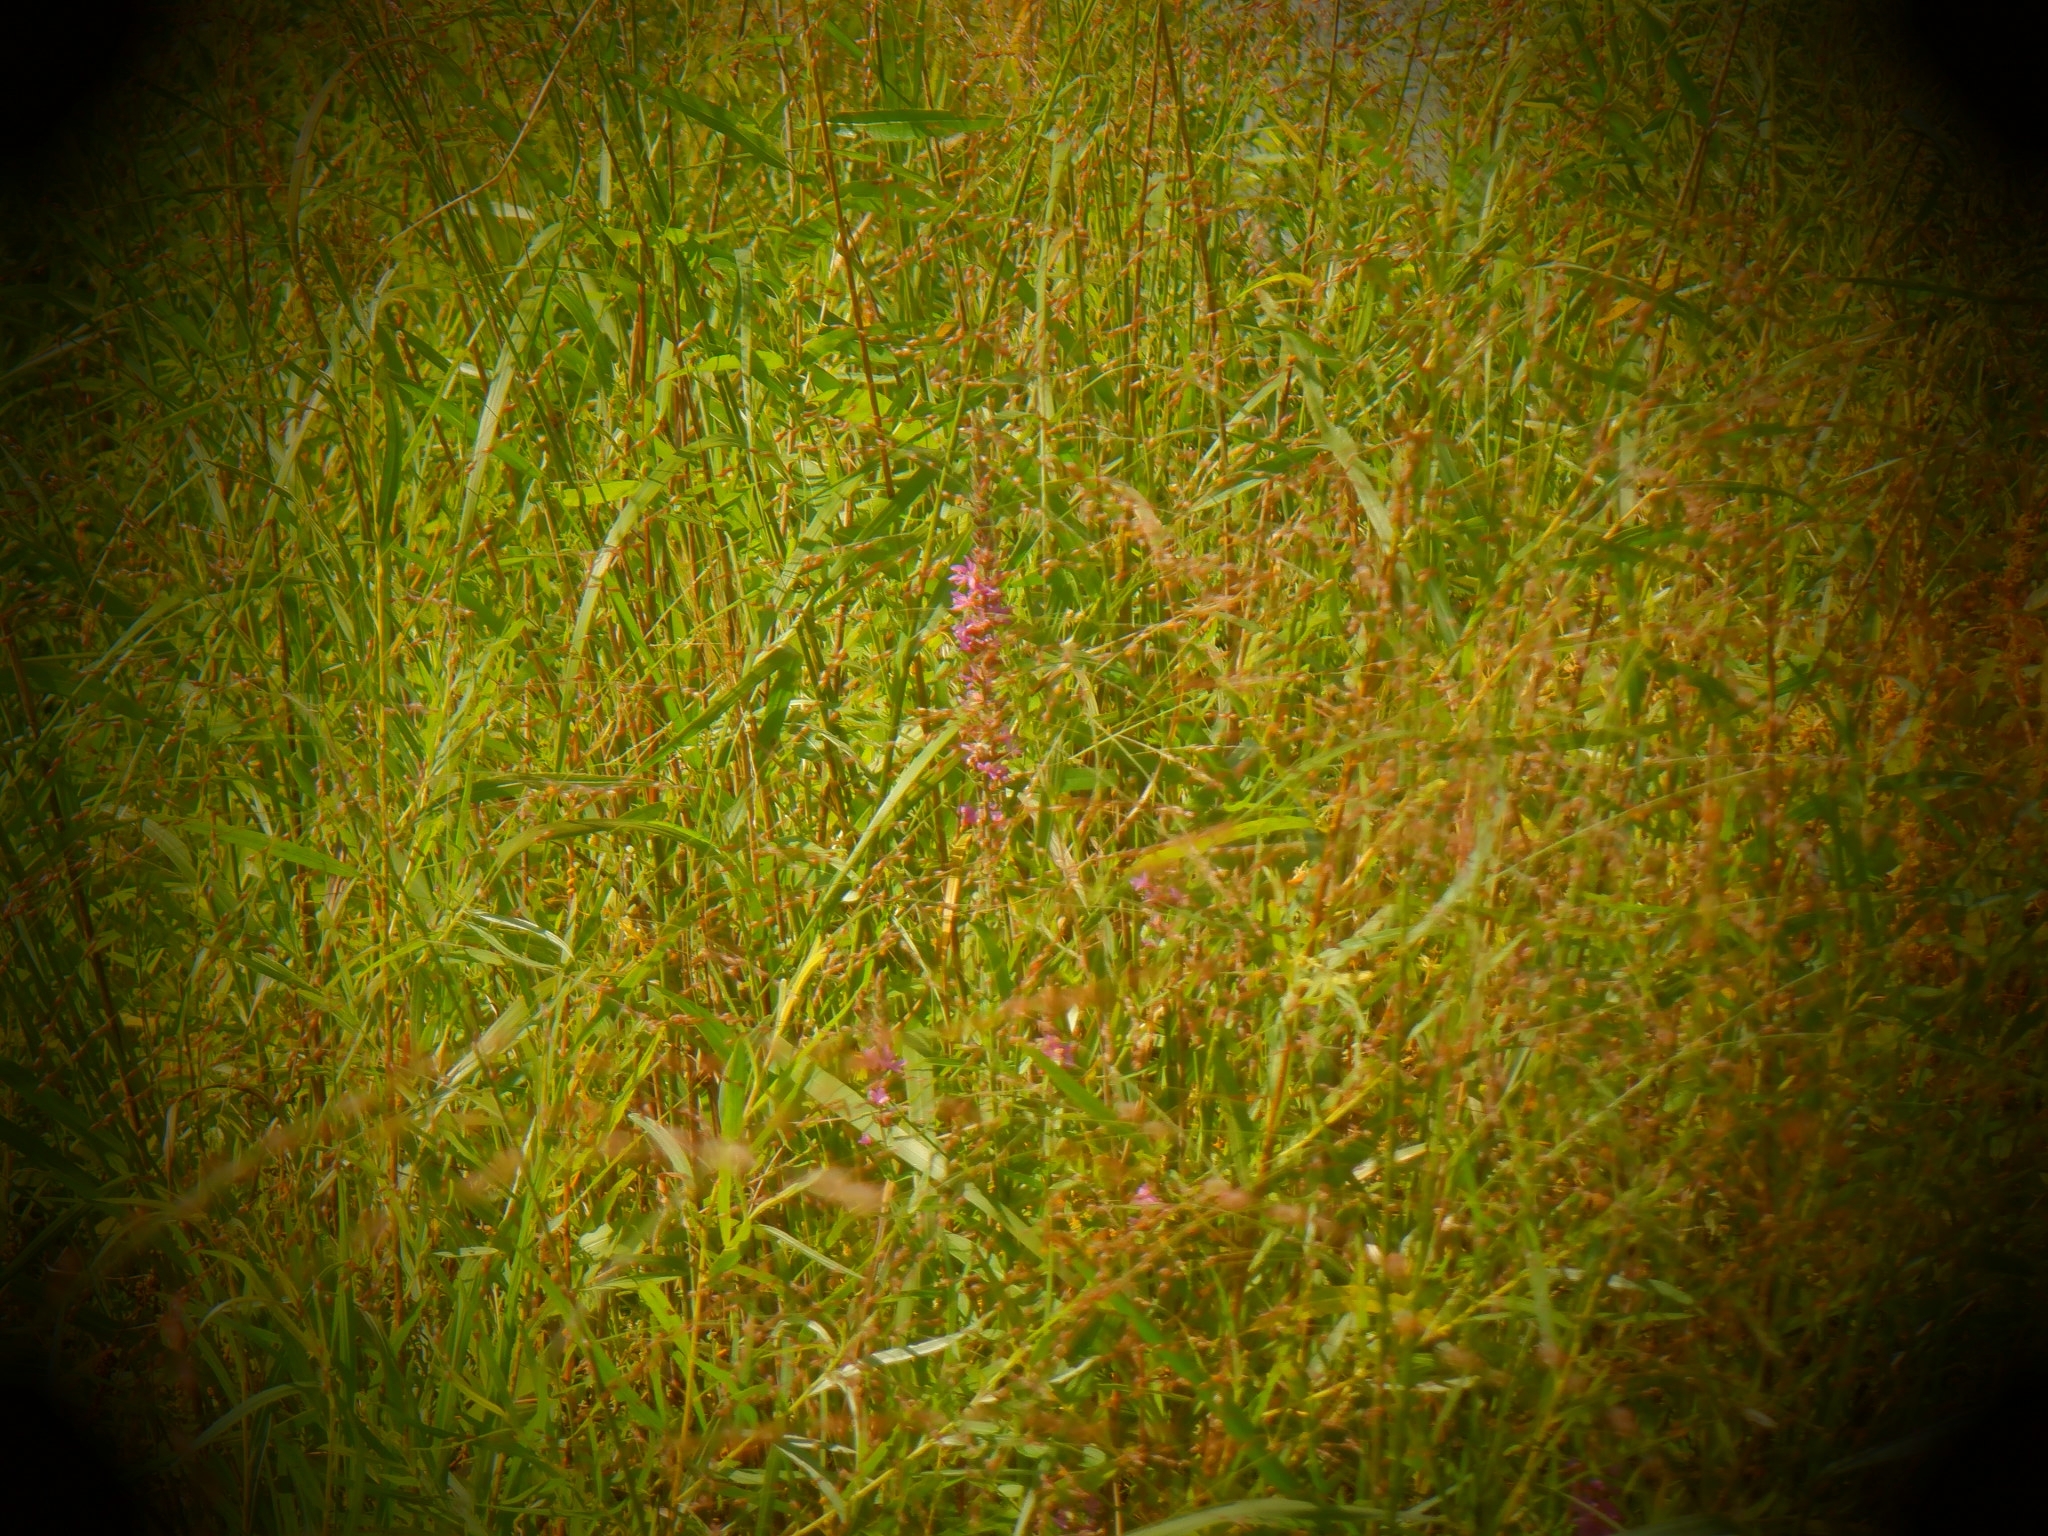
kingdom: Plantae
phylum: Tracheophyta
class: Magnoliopsida
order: Myrtales
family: Lythraceae
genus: Lythrum
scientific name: Lythrum salicaria
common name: Purple loosestrife
